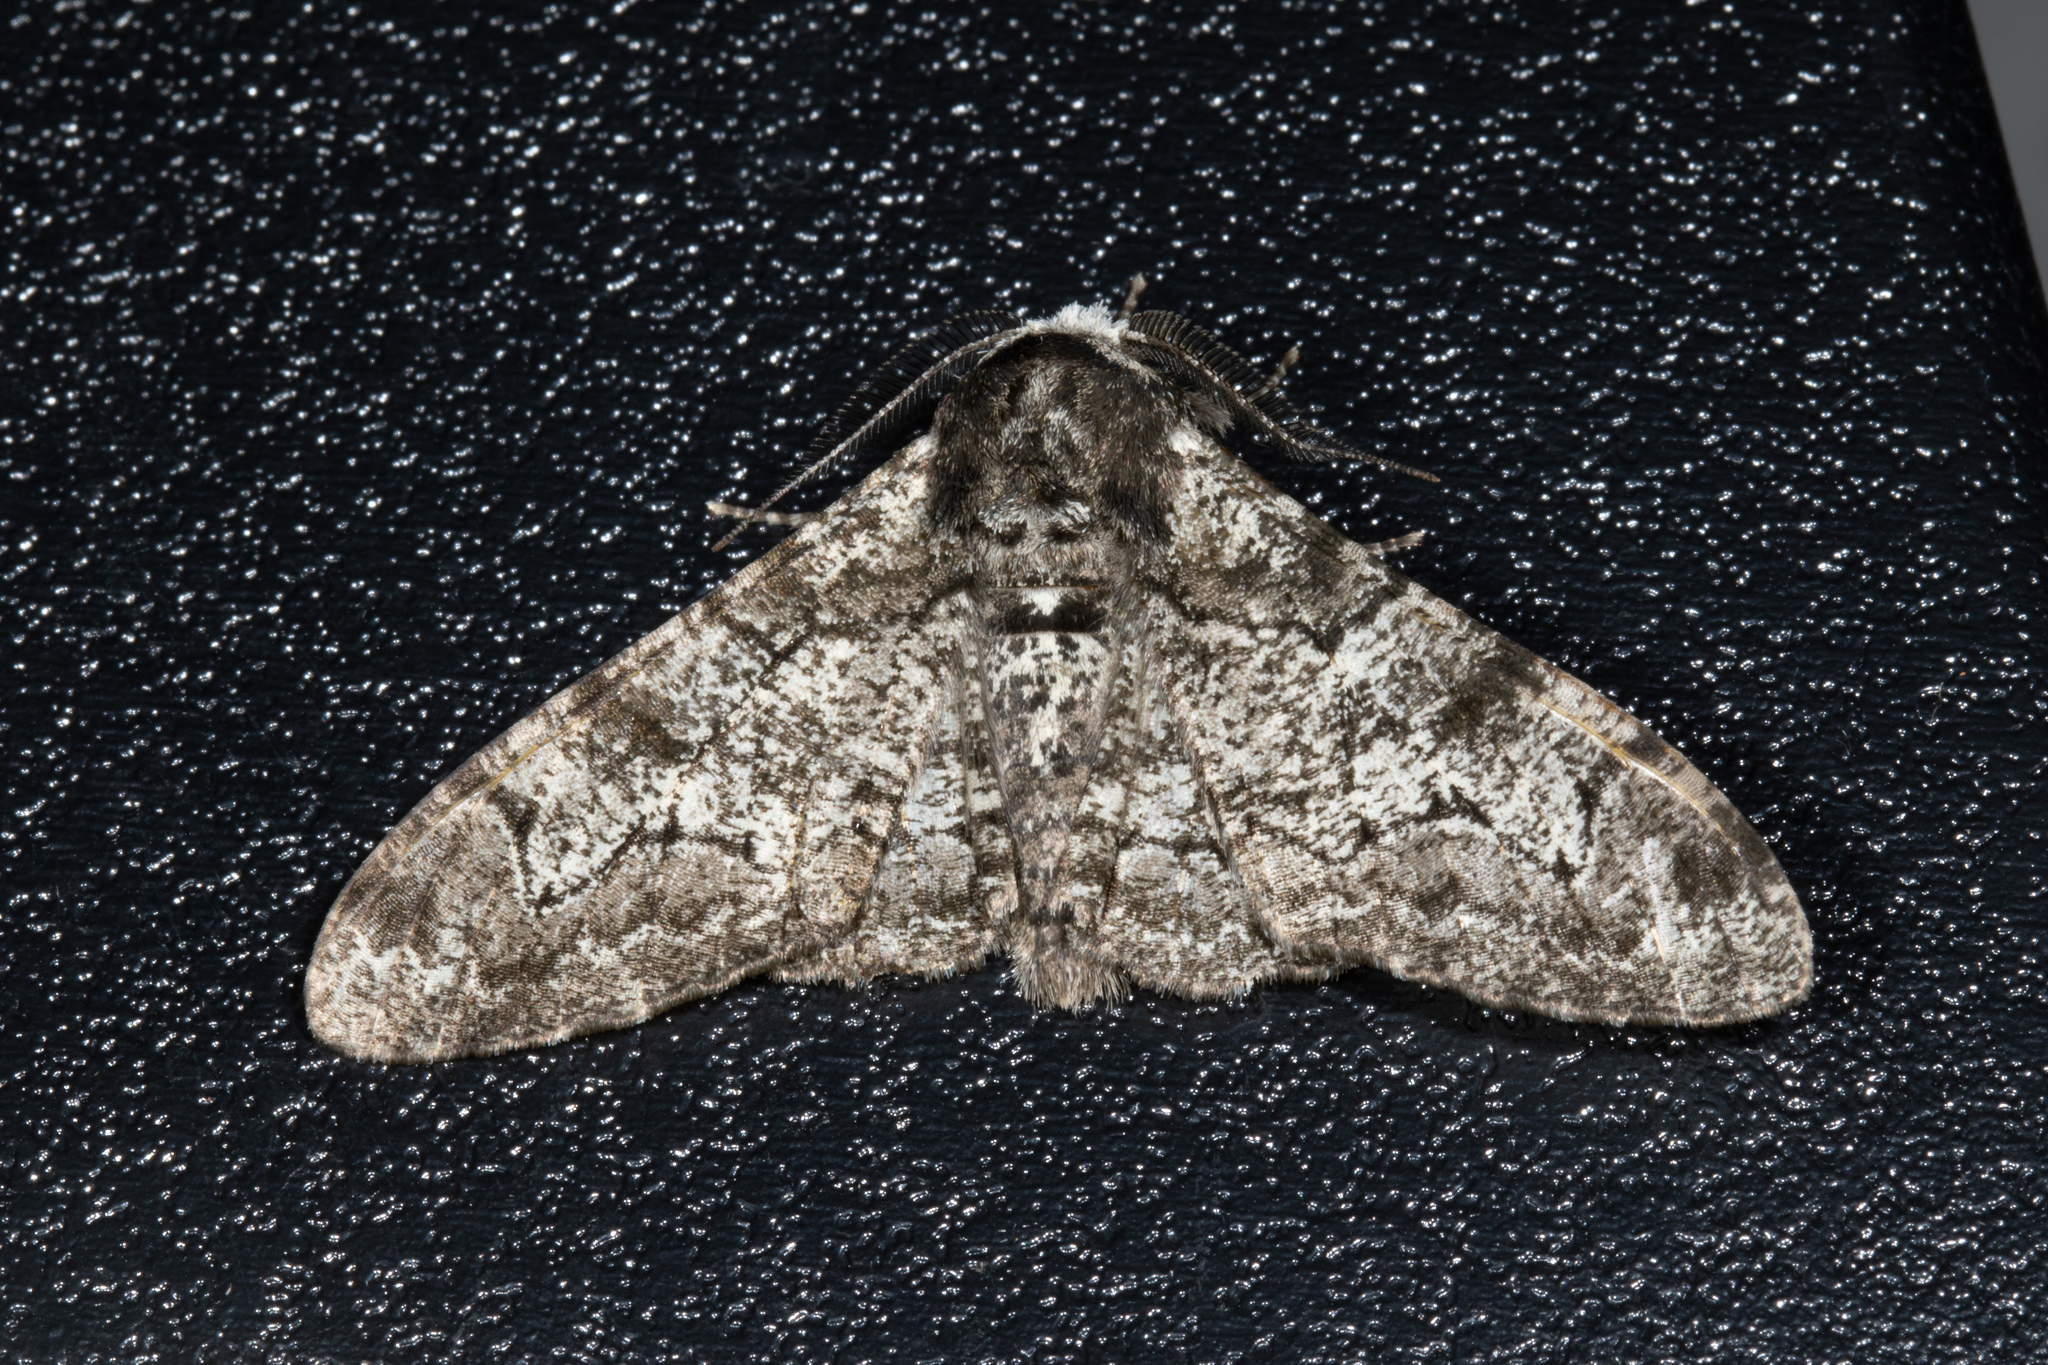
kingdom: Animalia
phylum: Arthropoda
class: Insecta
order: Lepidoptera
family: Geometridae
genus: Biston
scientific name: Biston betularia
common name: Peppered moth
